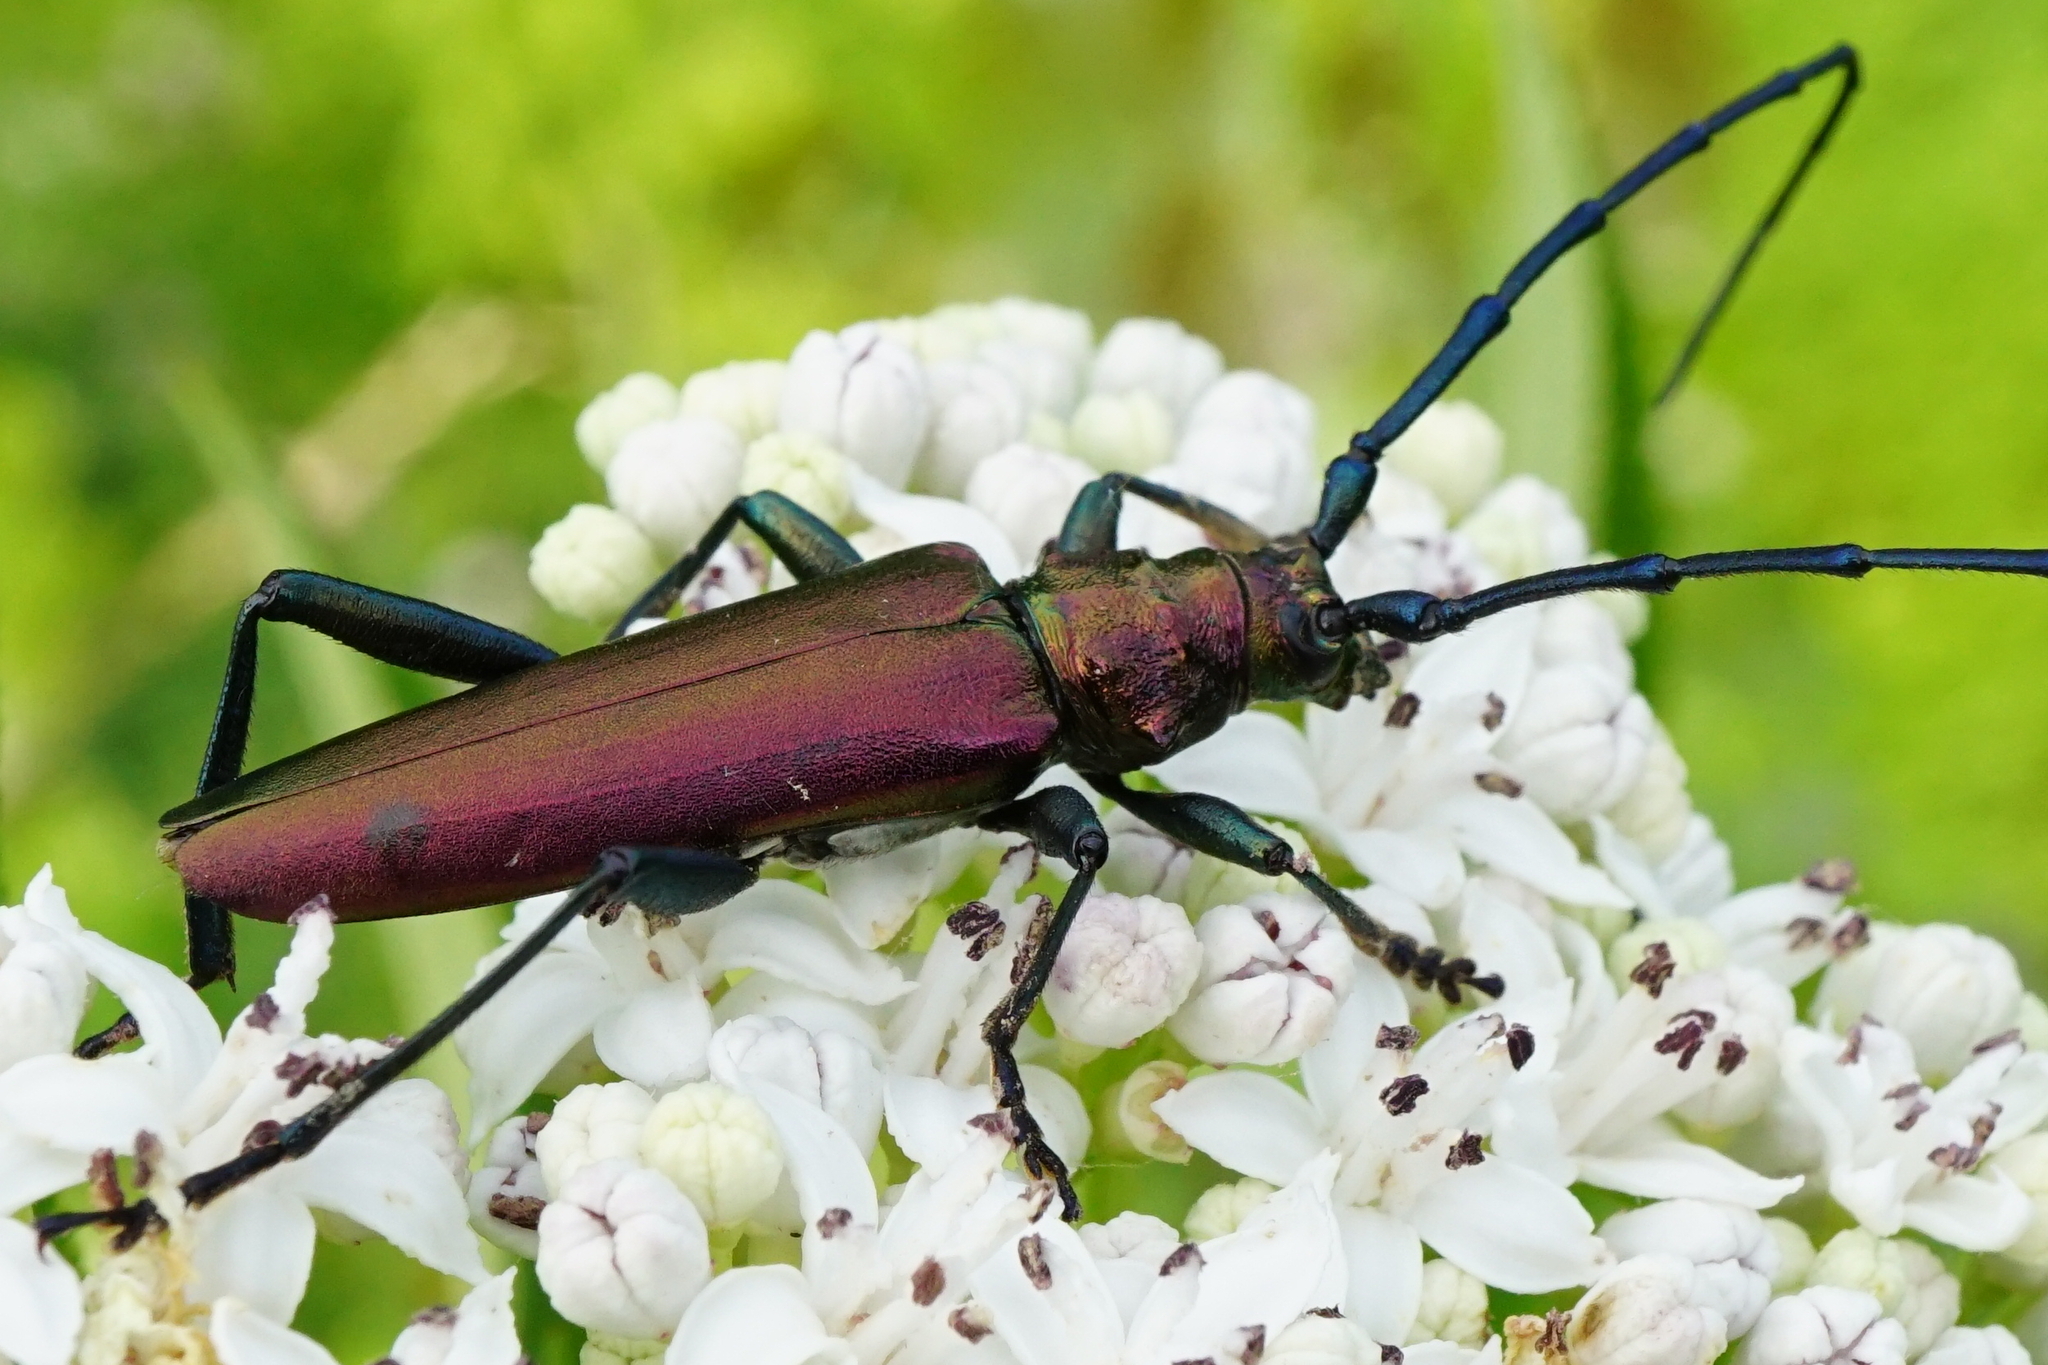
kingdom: Animalia
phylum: Arthropoda
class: Insecta
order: Coleoptera
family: Cerambycidae
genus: Aromia
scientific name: Aromia moschata
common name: Musk beetle
